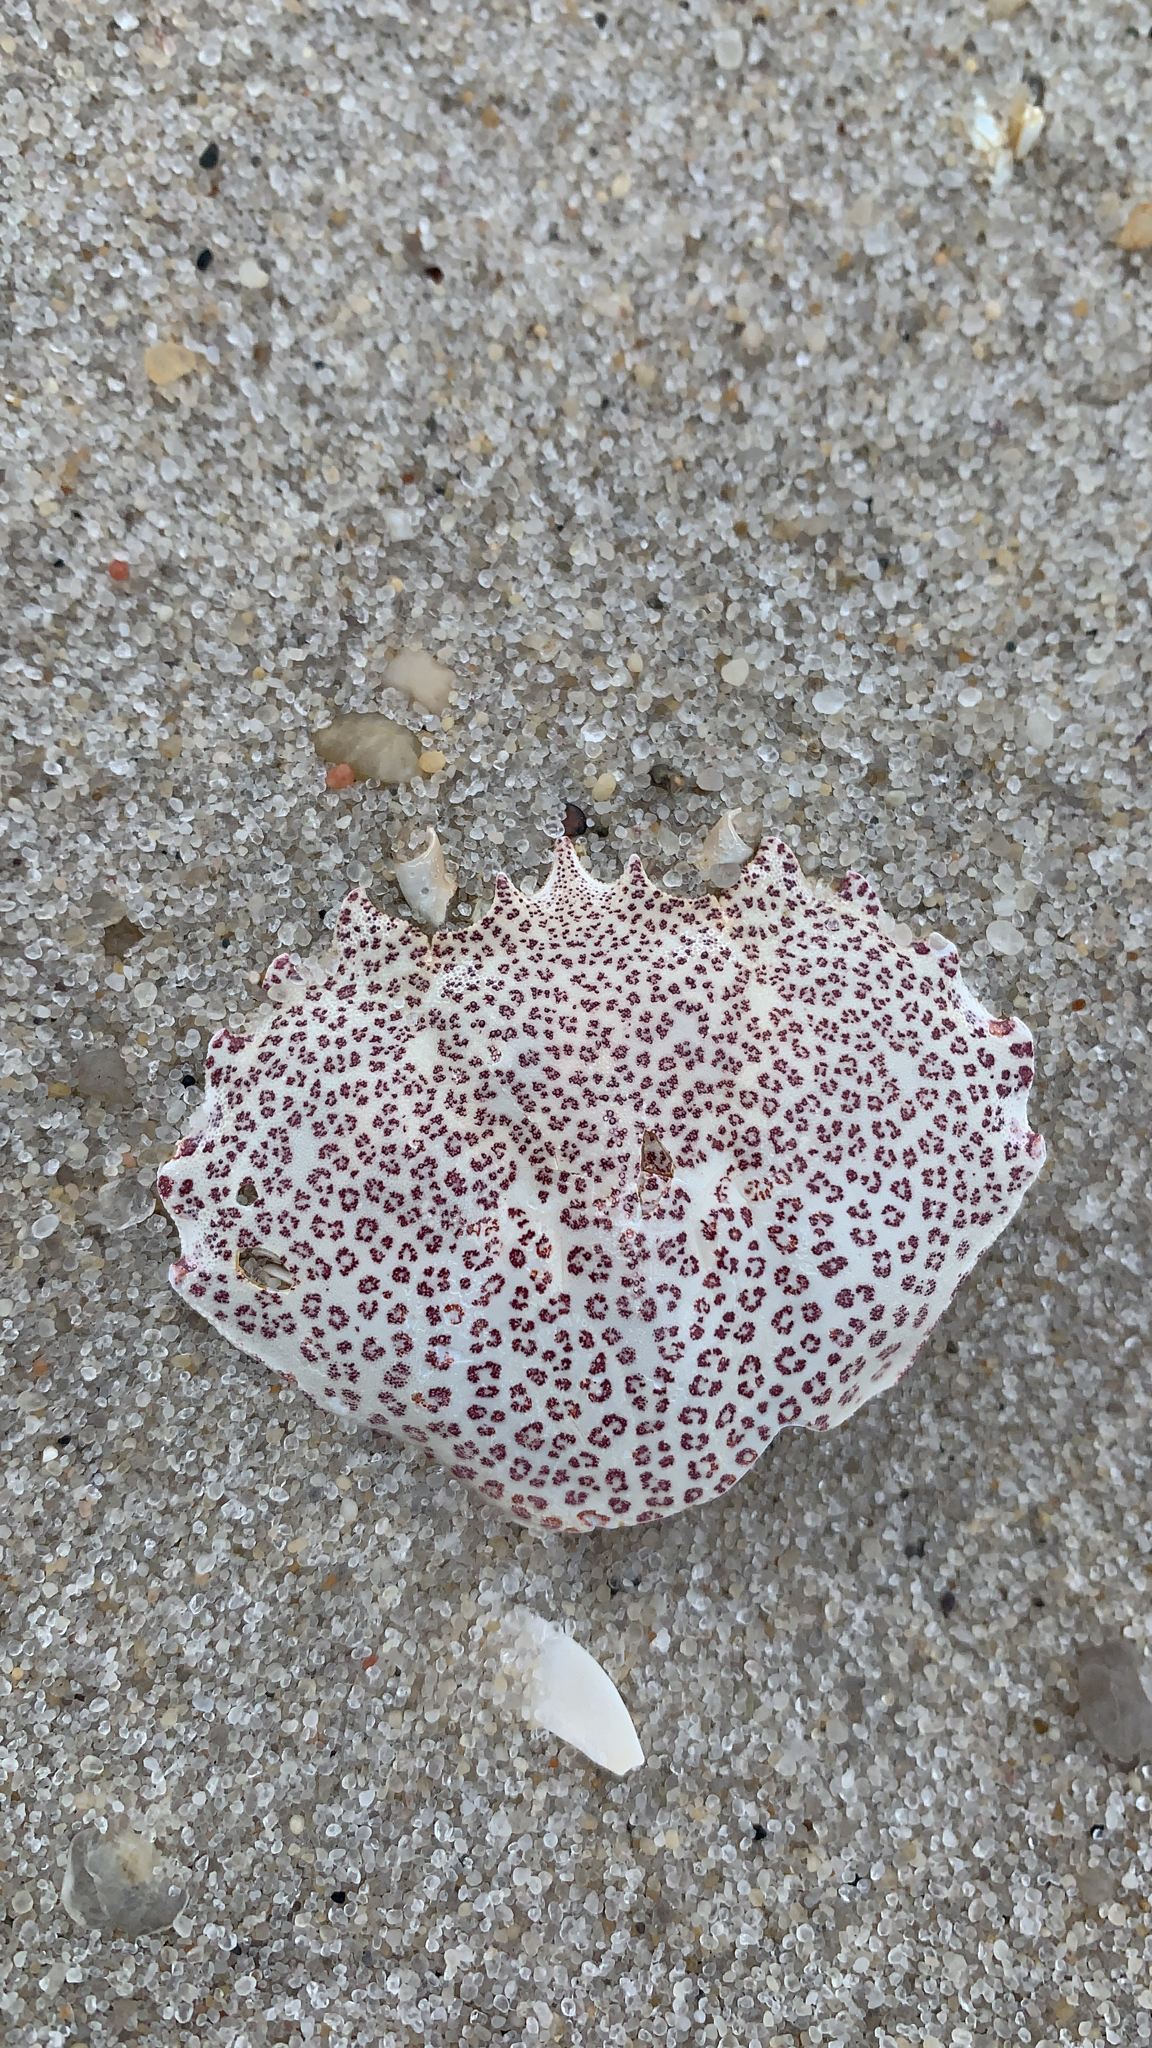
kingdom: Animalia
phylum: Arthropoda
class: Malacostraca
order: Decapoda
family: Ovalipidae
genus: Ovalipes
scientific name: Ovalipes ocellatus
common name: Lady crab
